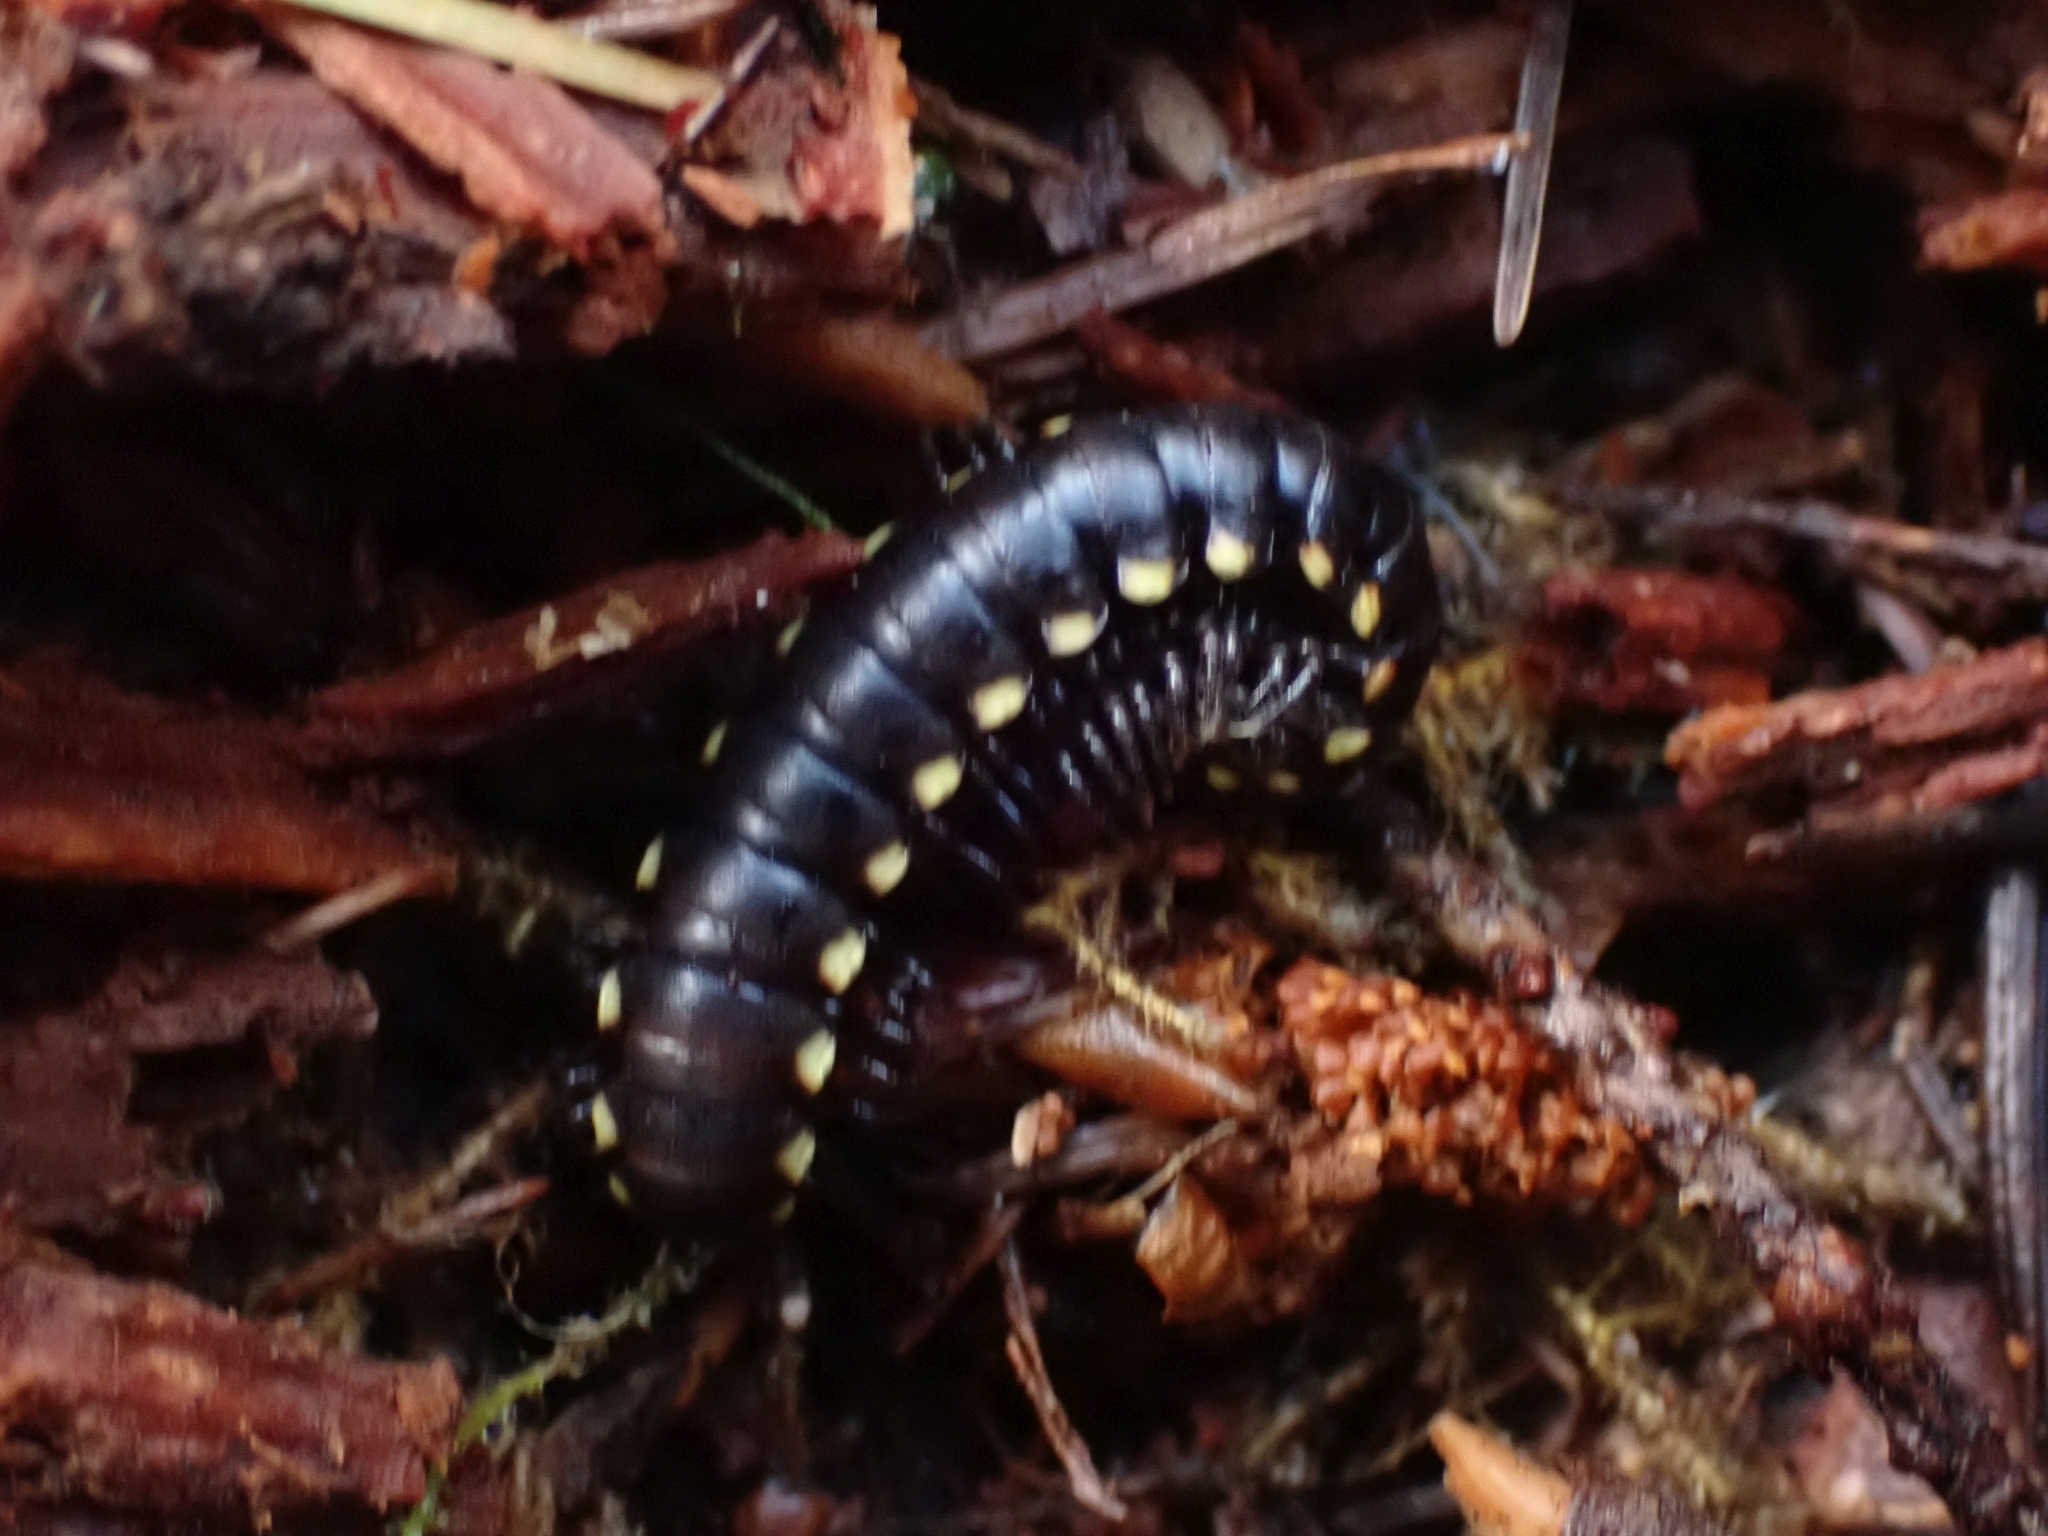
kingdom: Animalia
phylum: Arthropoda
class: Diplopoda
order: Polydesmida
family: Xystodesmidae
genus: Harpaphe
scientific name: Harpaphe haydeniana
